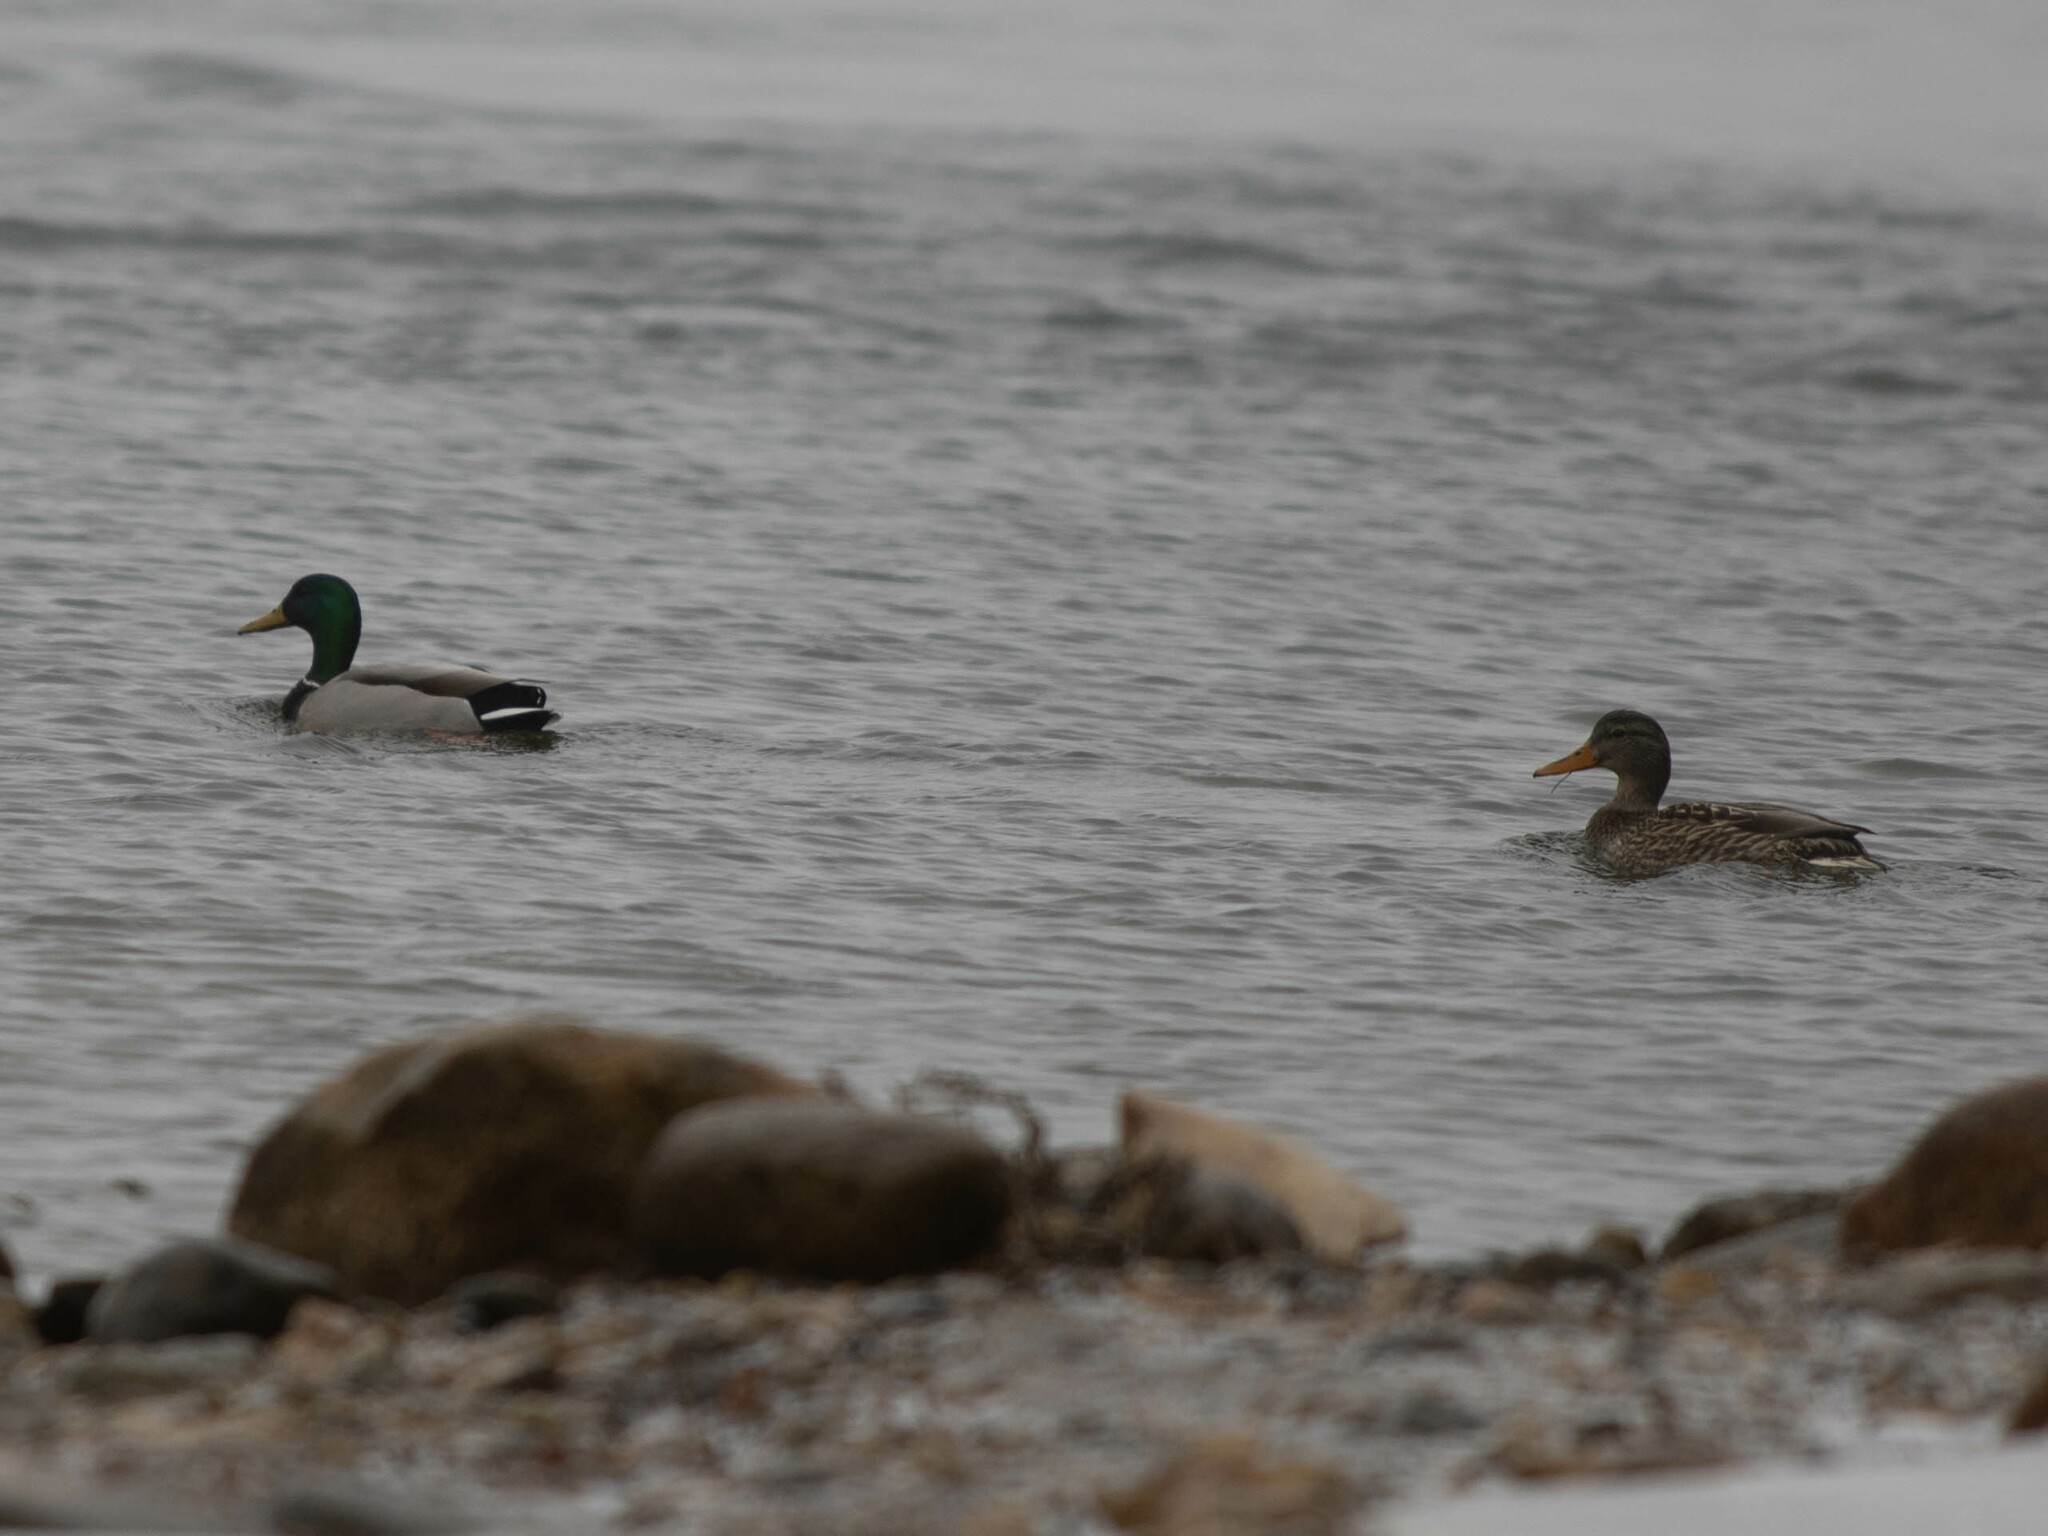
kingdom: Animalia
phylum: Chordata
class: Aves
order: Anseriformes
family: Anatidae
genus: Anas
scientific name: Anas platyrhynchos
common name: Mallard
